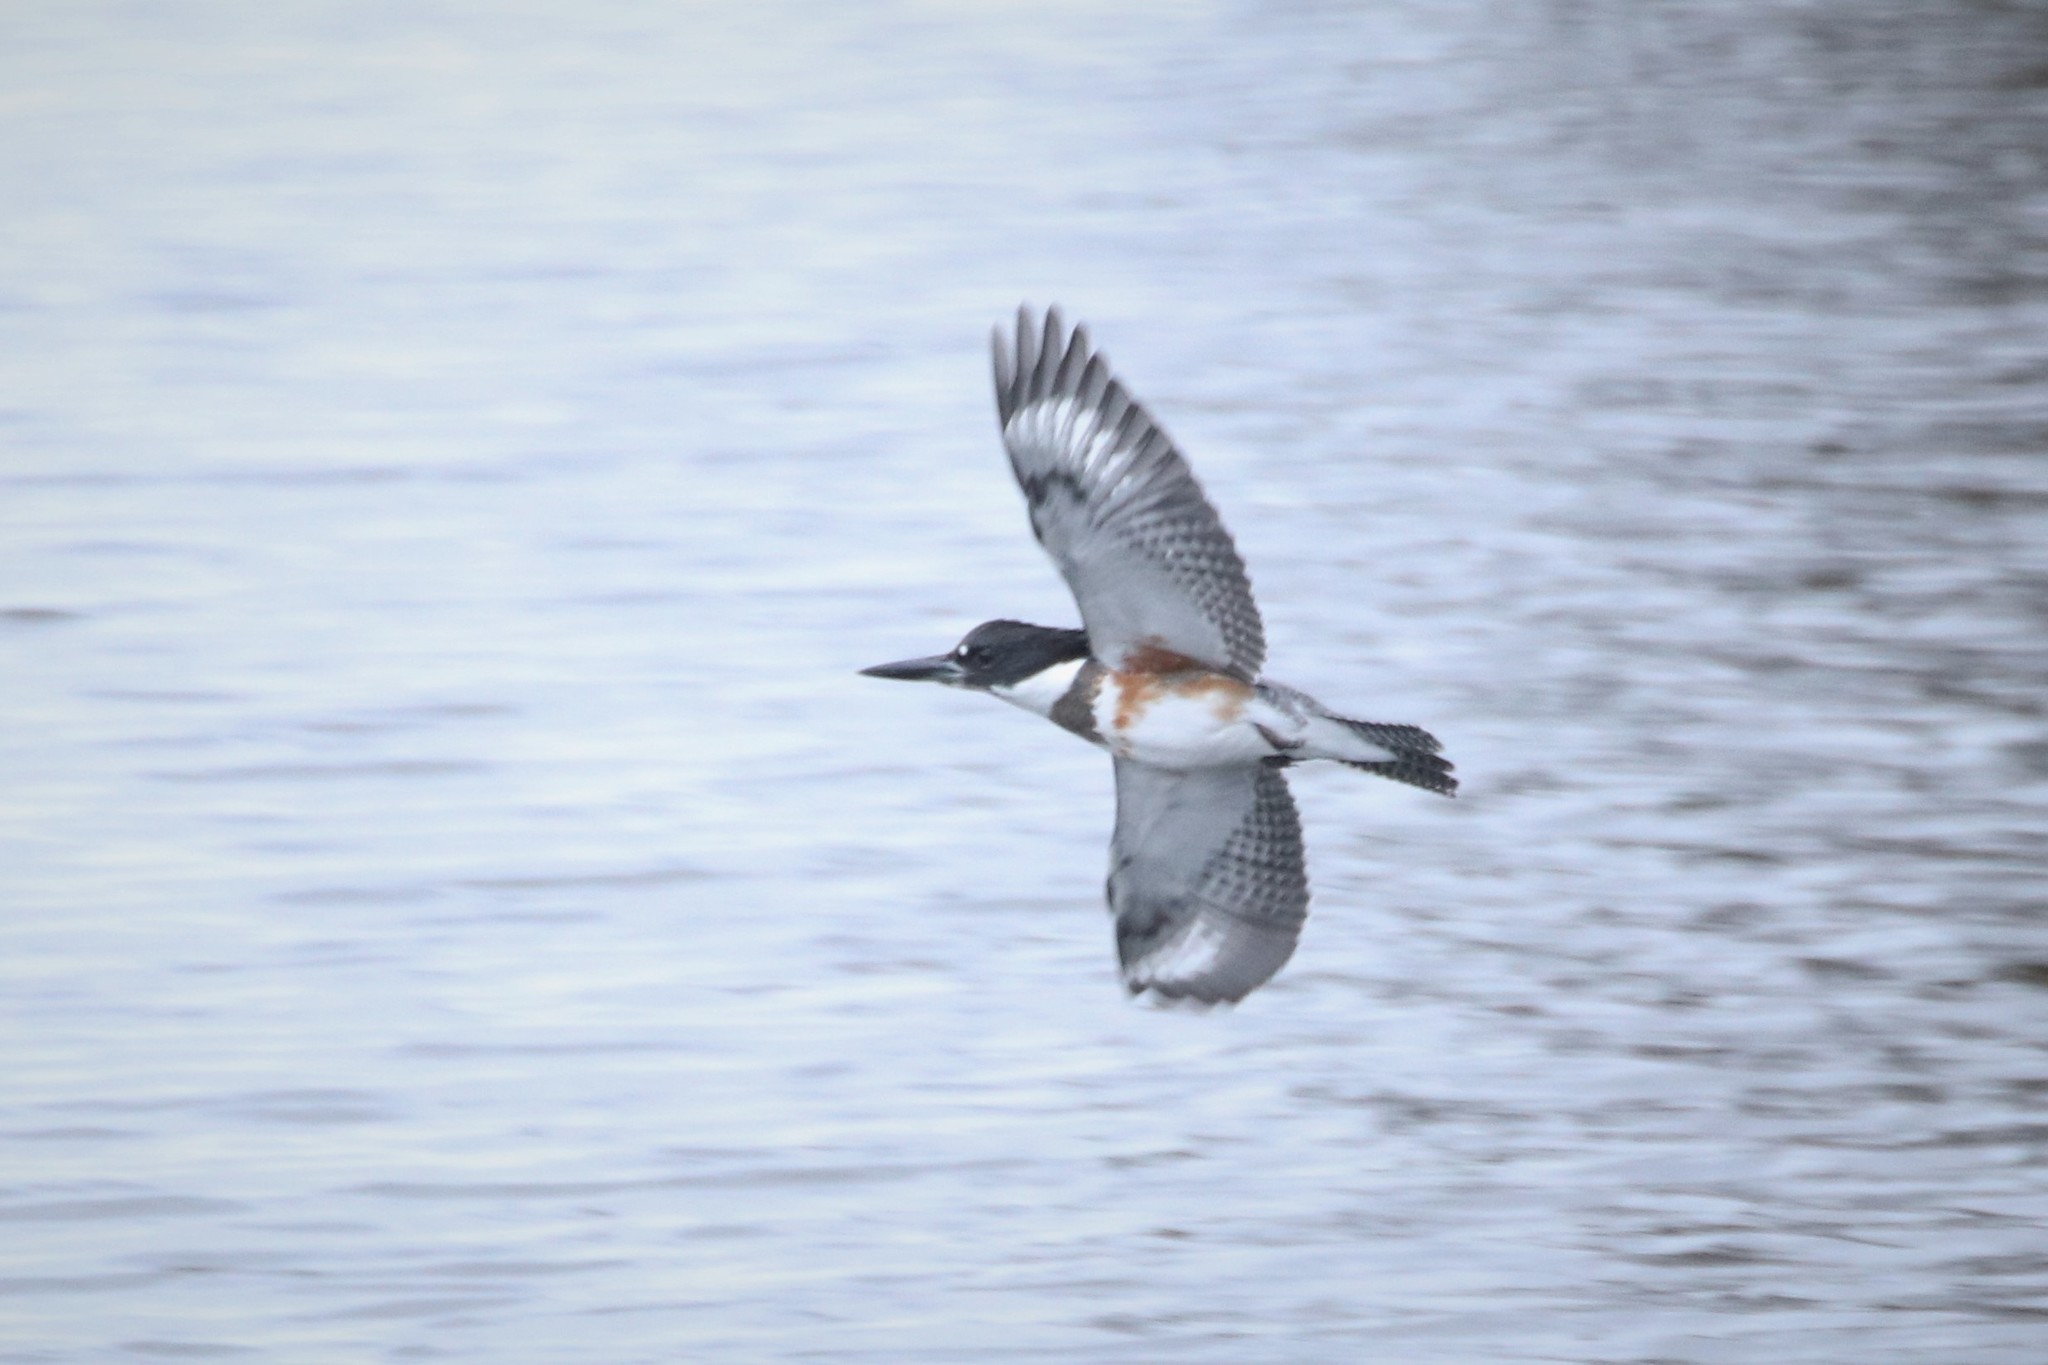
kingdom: Animalia
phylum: Chordata
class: Aves
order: Coraciiformes
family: Alcedinidae
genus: Megaceryle
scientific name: Megaceryle alcyon
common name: Belted kingfisher
